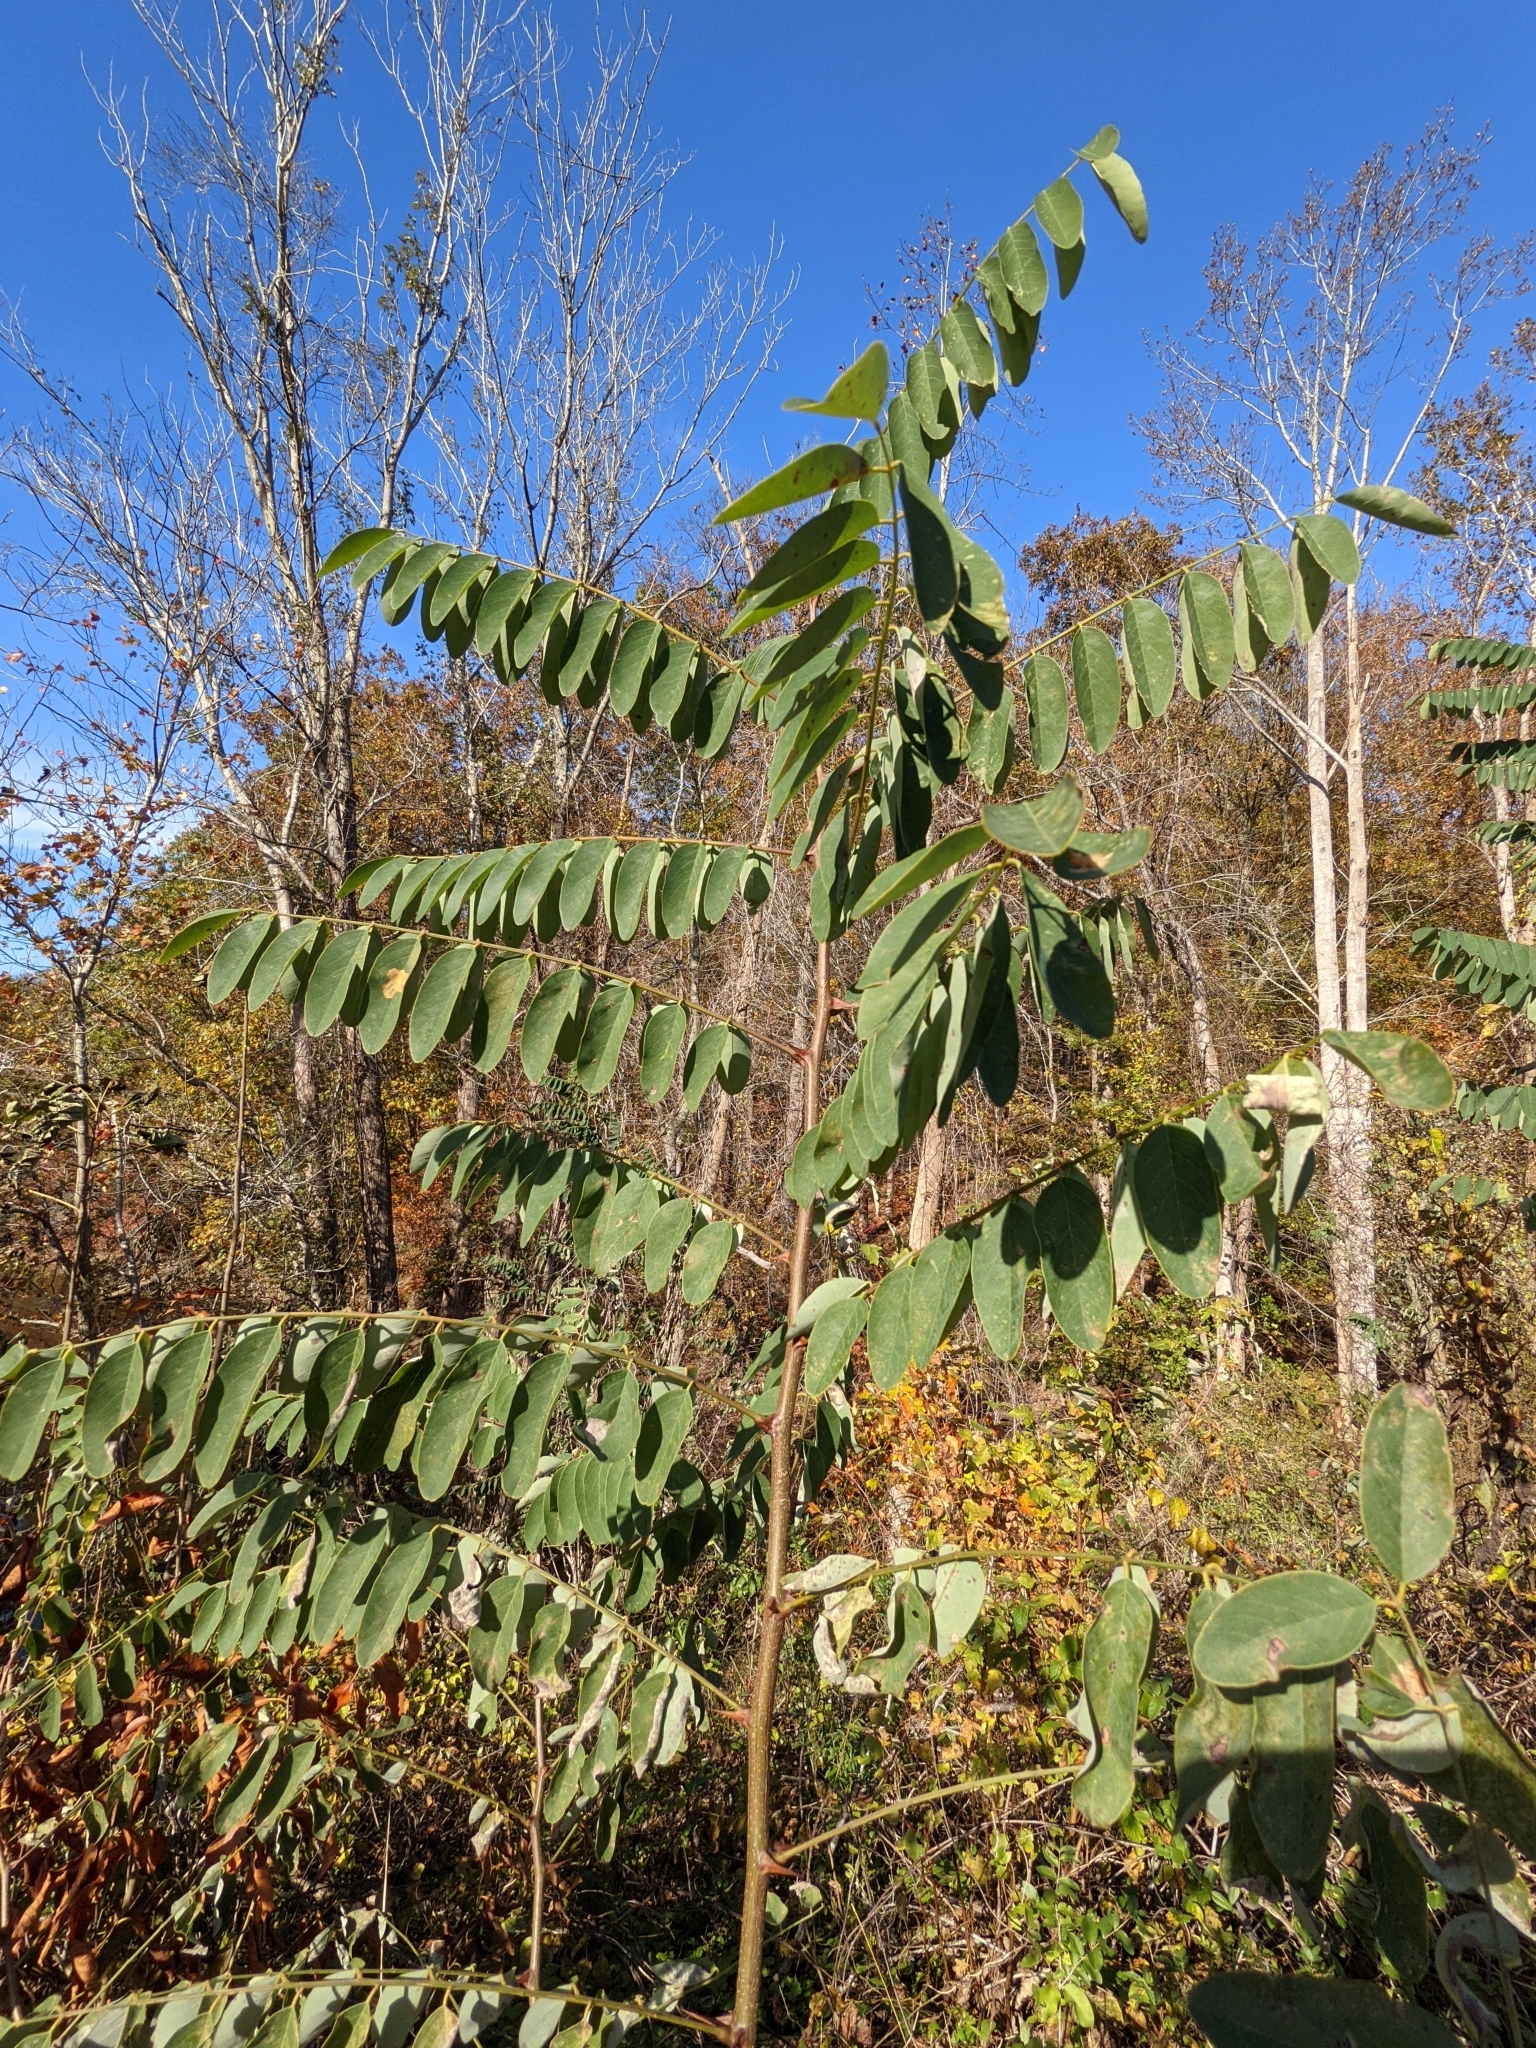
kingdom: Plantae
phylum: Tracheophyta
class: Magnoliopsida
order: Fabales
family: Fabaceae
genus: Robinia
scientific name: Robinia pseudoacacia
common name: Black locust
